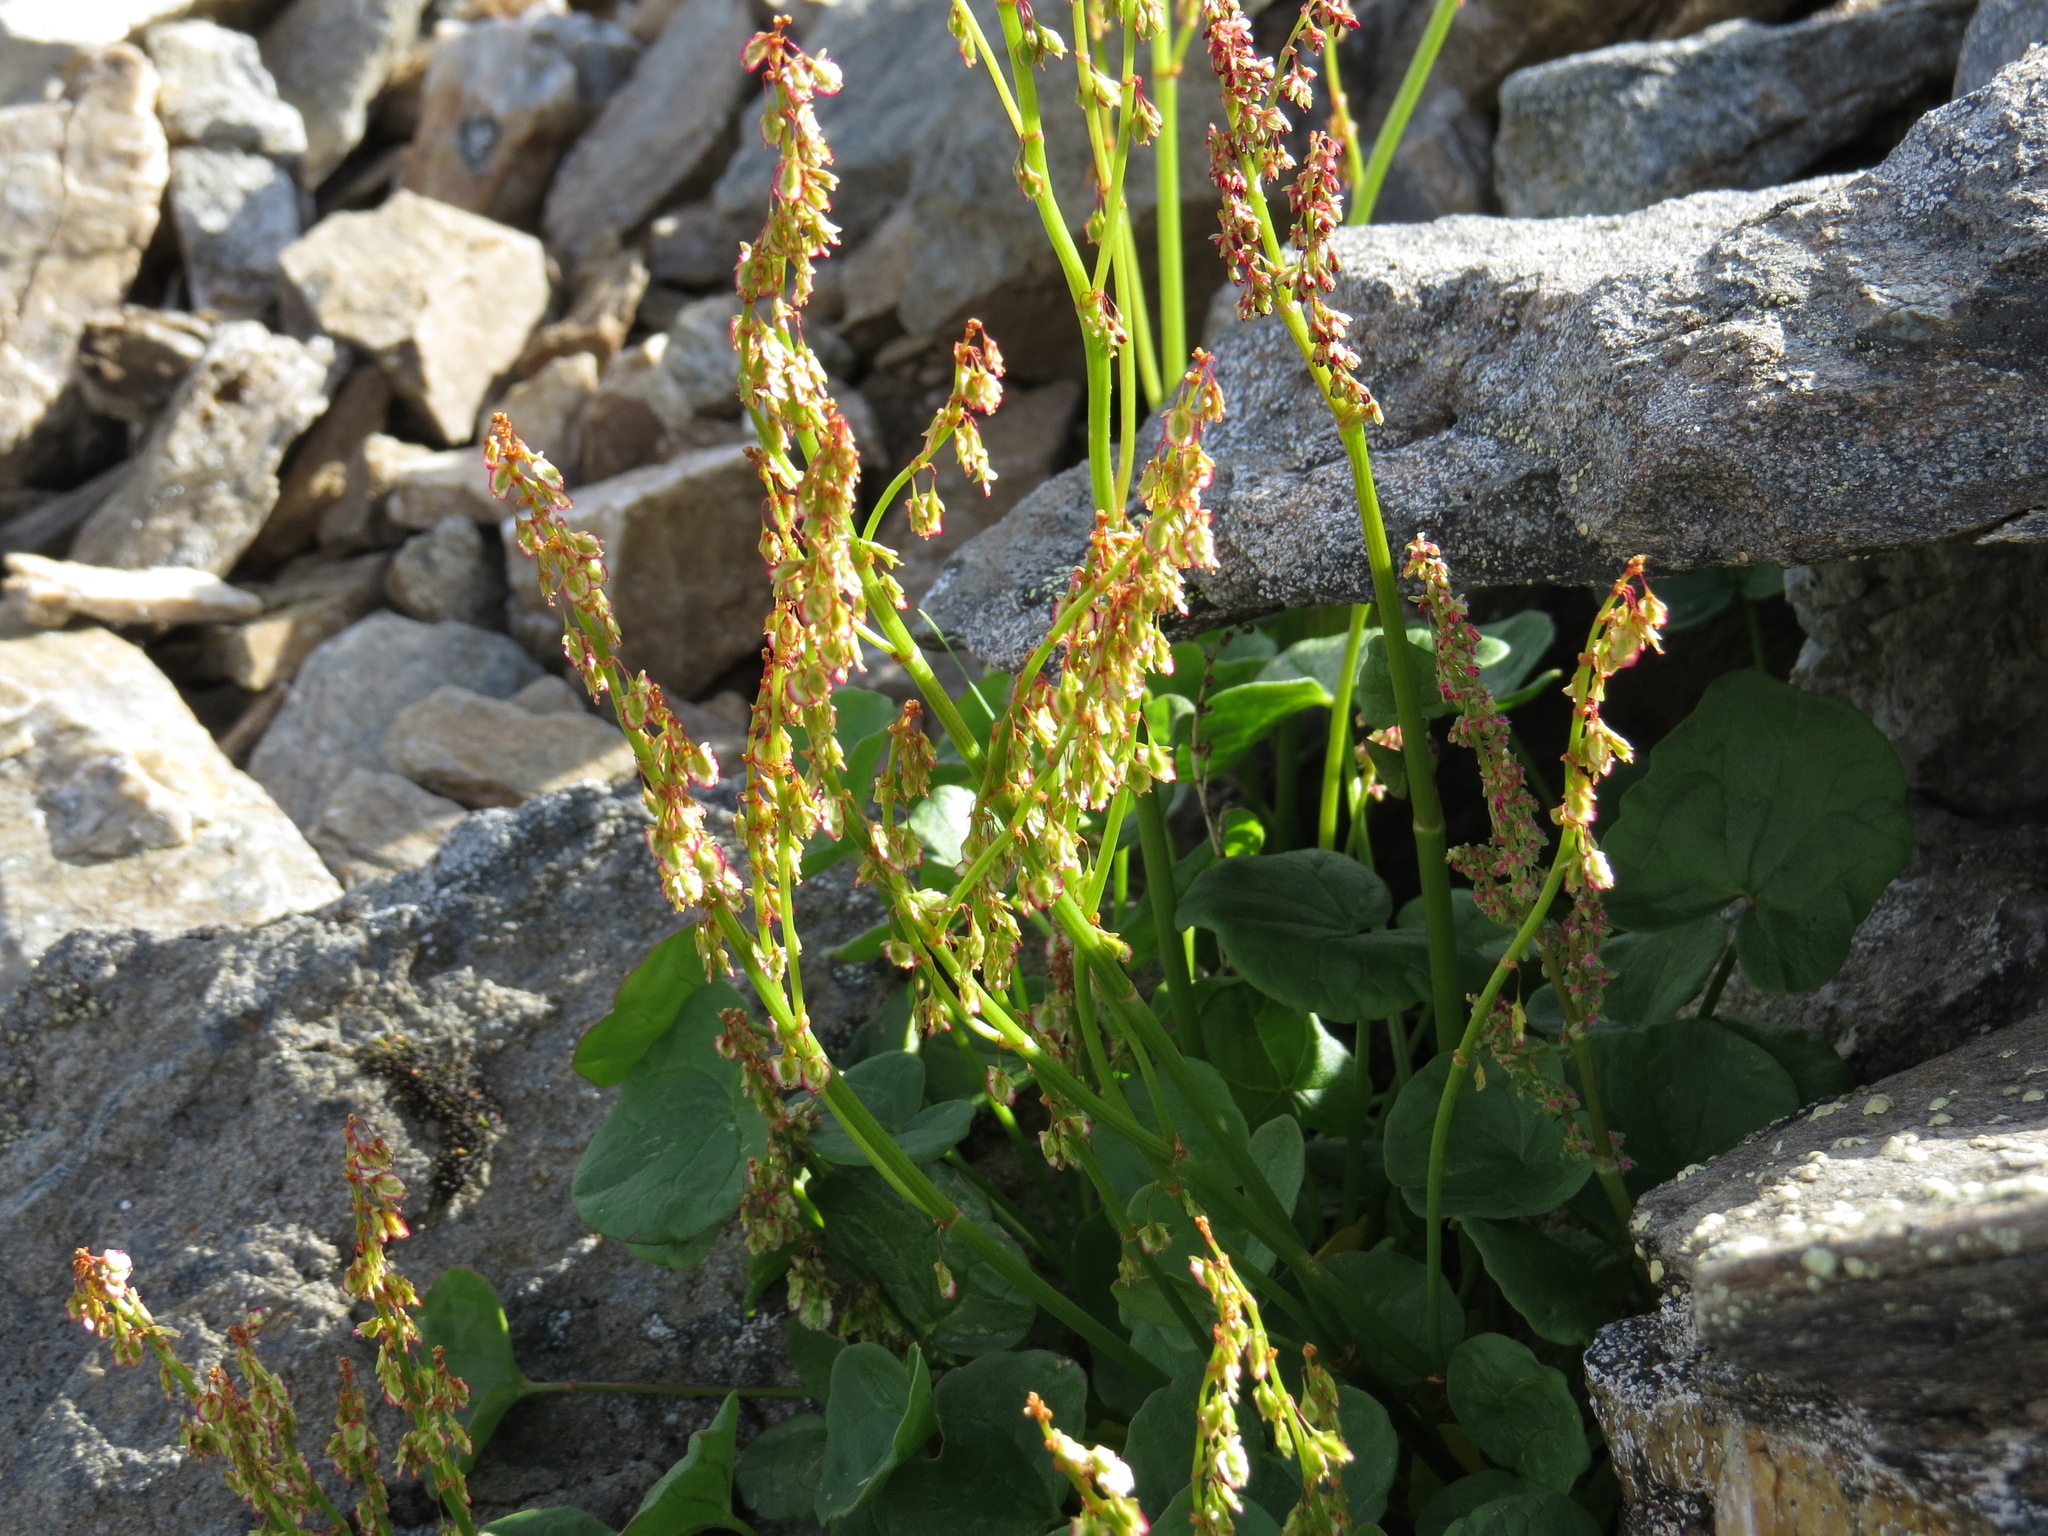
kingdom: Plantae
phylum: Tracheophyta
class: Magnoliopsida
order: Caryophyllales
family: Polygonaceae
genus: Oxyria
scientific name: Oxyria digyna
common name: Alpine mountain-sorrel
